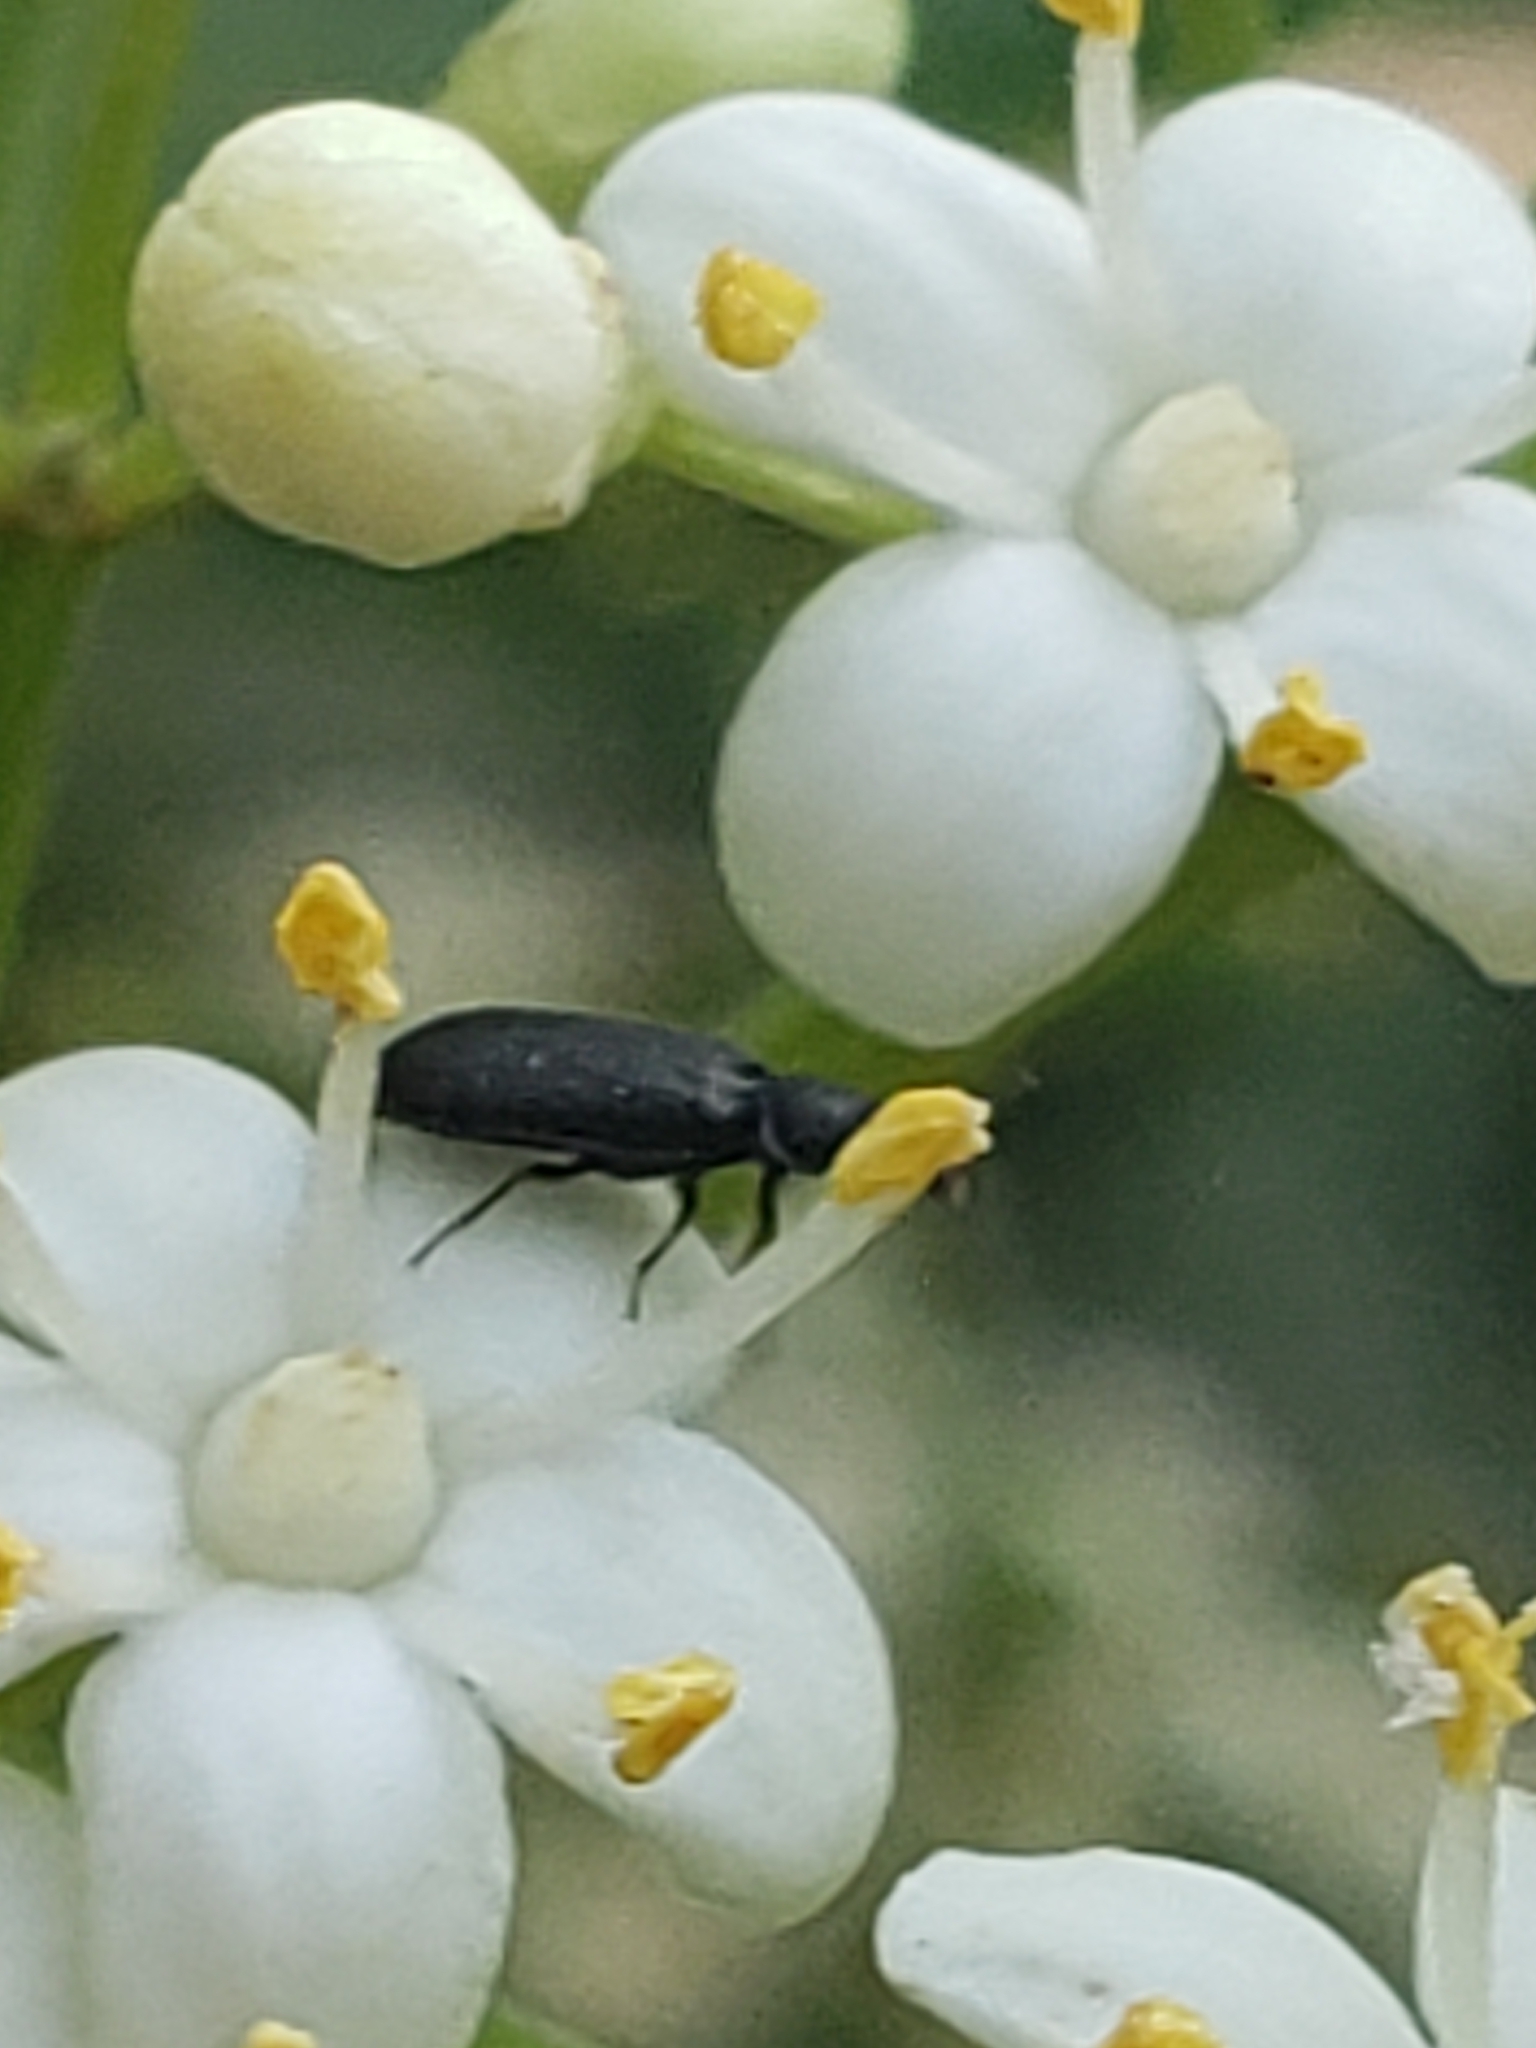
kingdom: Animalia
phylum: Arthropoda
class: Insecta
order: Coleoptera
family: Melyridae
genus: Melyrodes
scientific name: Melyrodes
